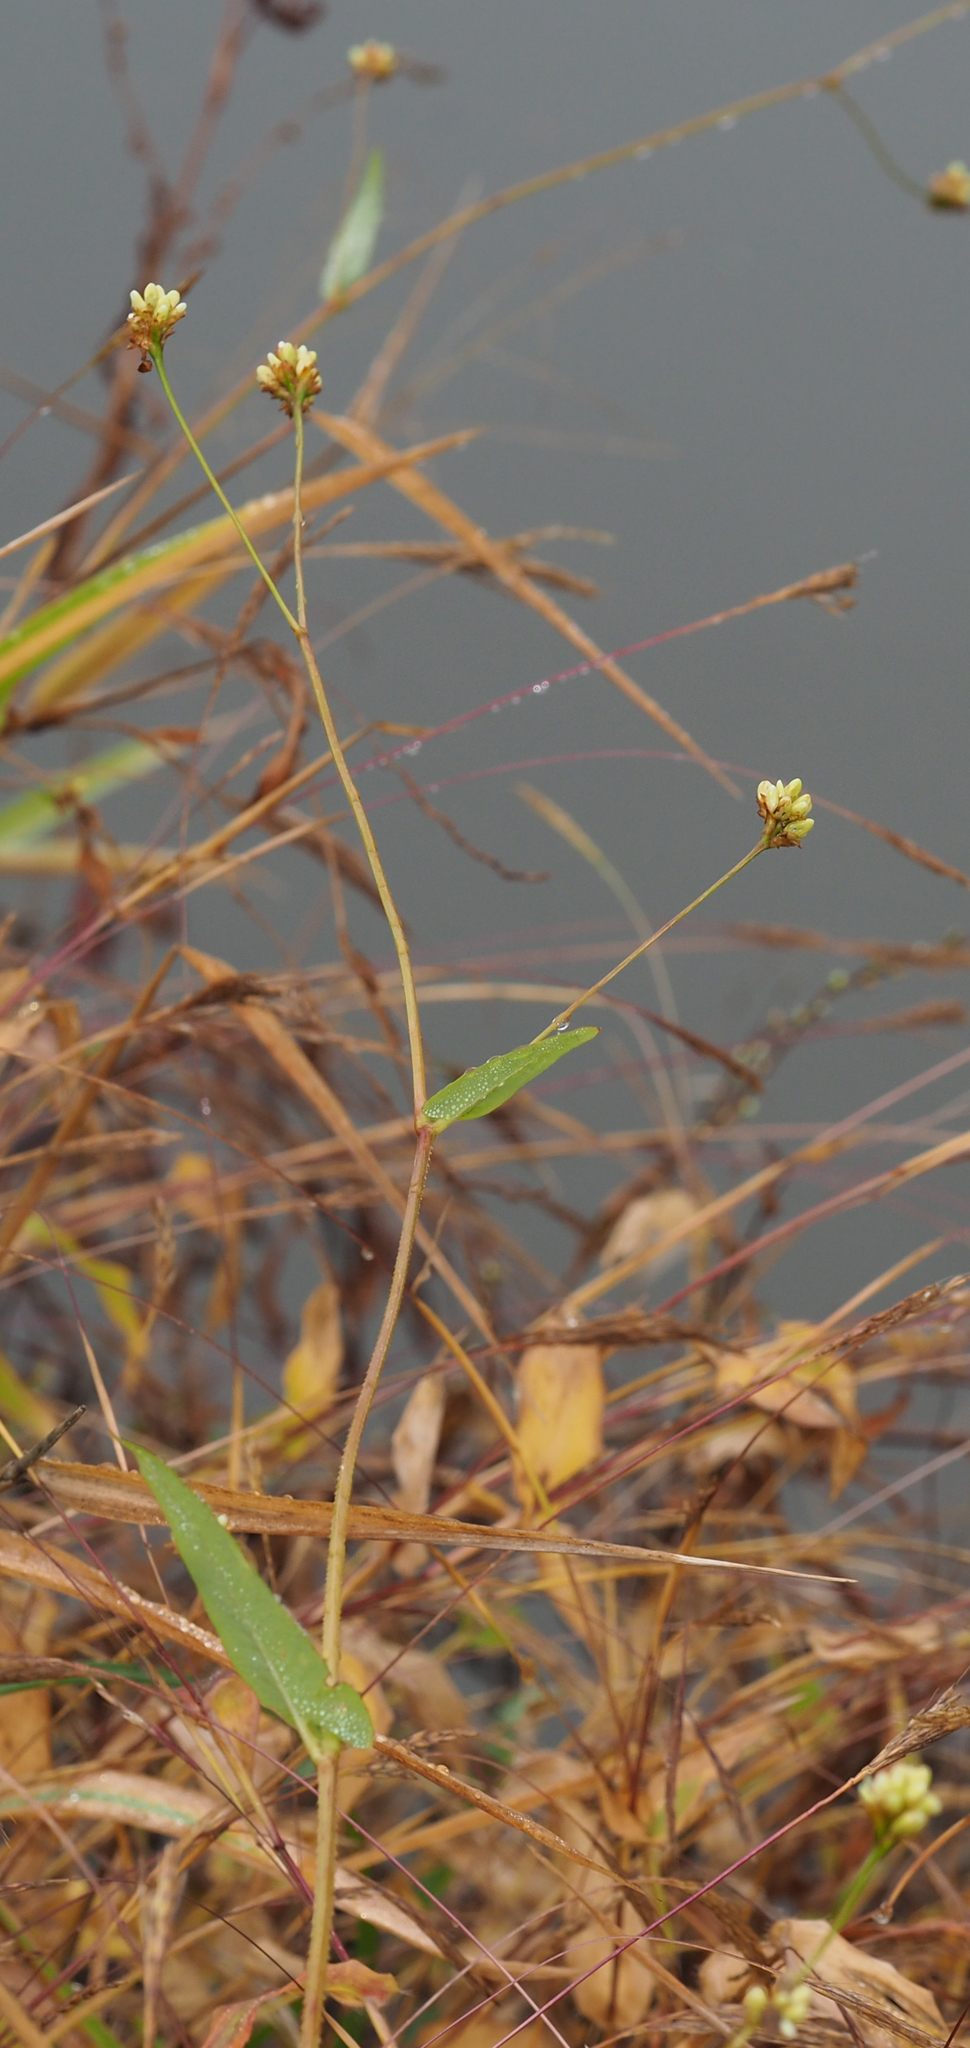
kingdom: Plantae
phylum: Tracheophyta
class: Magnoliopsida
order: Caryophyllales
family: Polygonaceae
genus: Persicaria
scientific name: Persicaria sagittata
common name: American tearthumb
